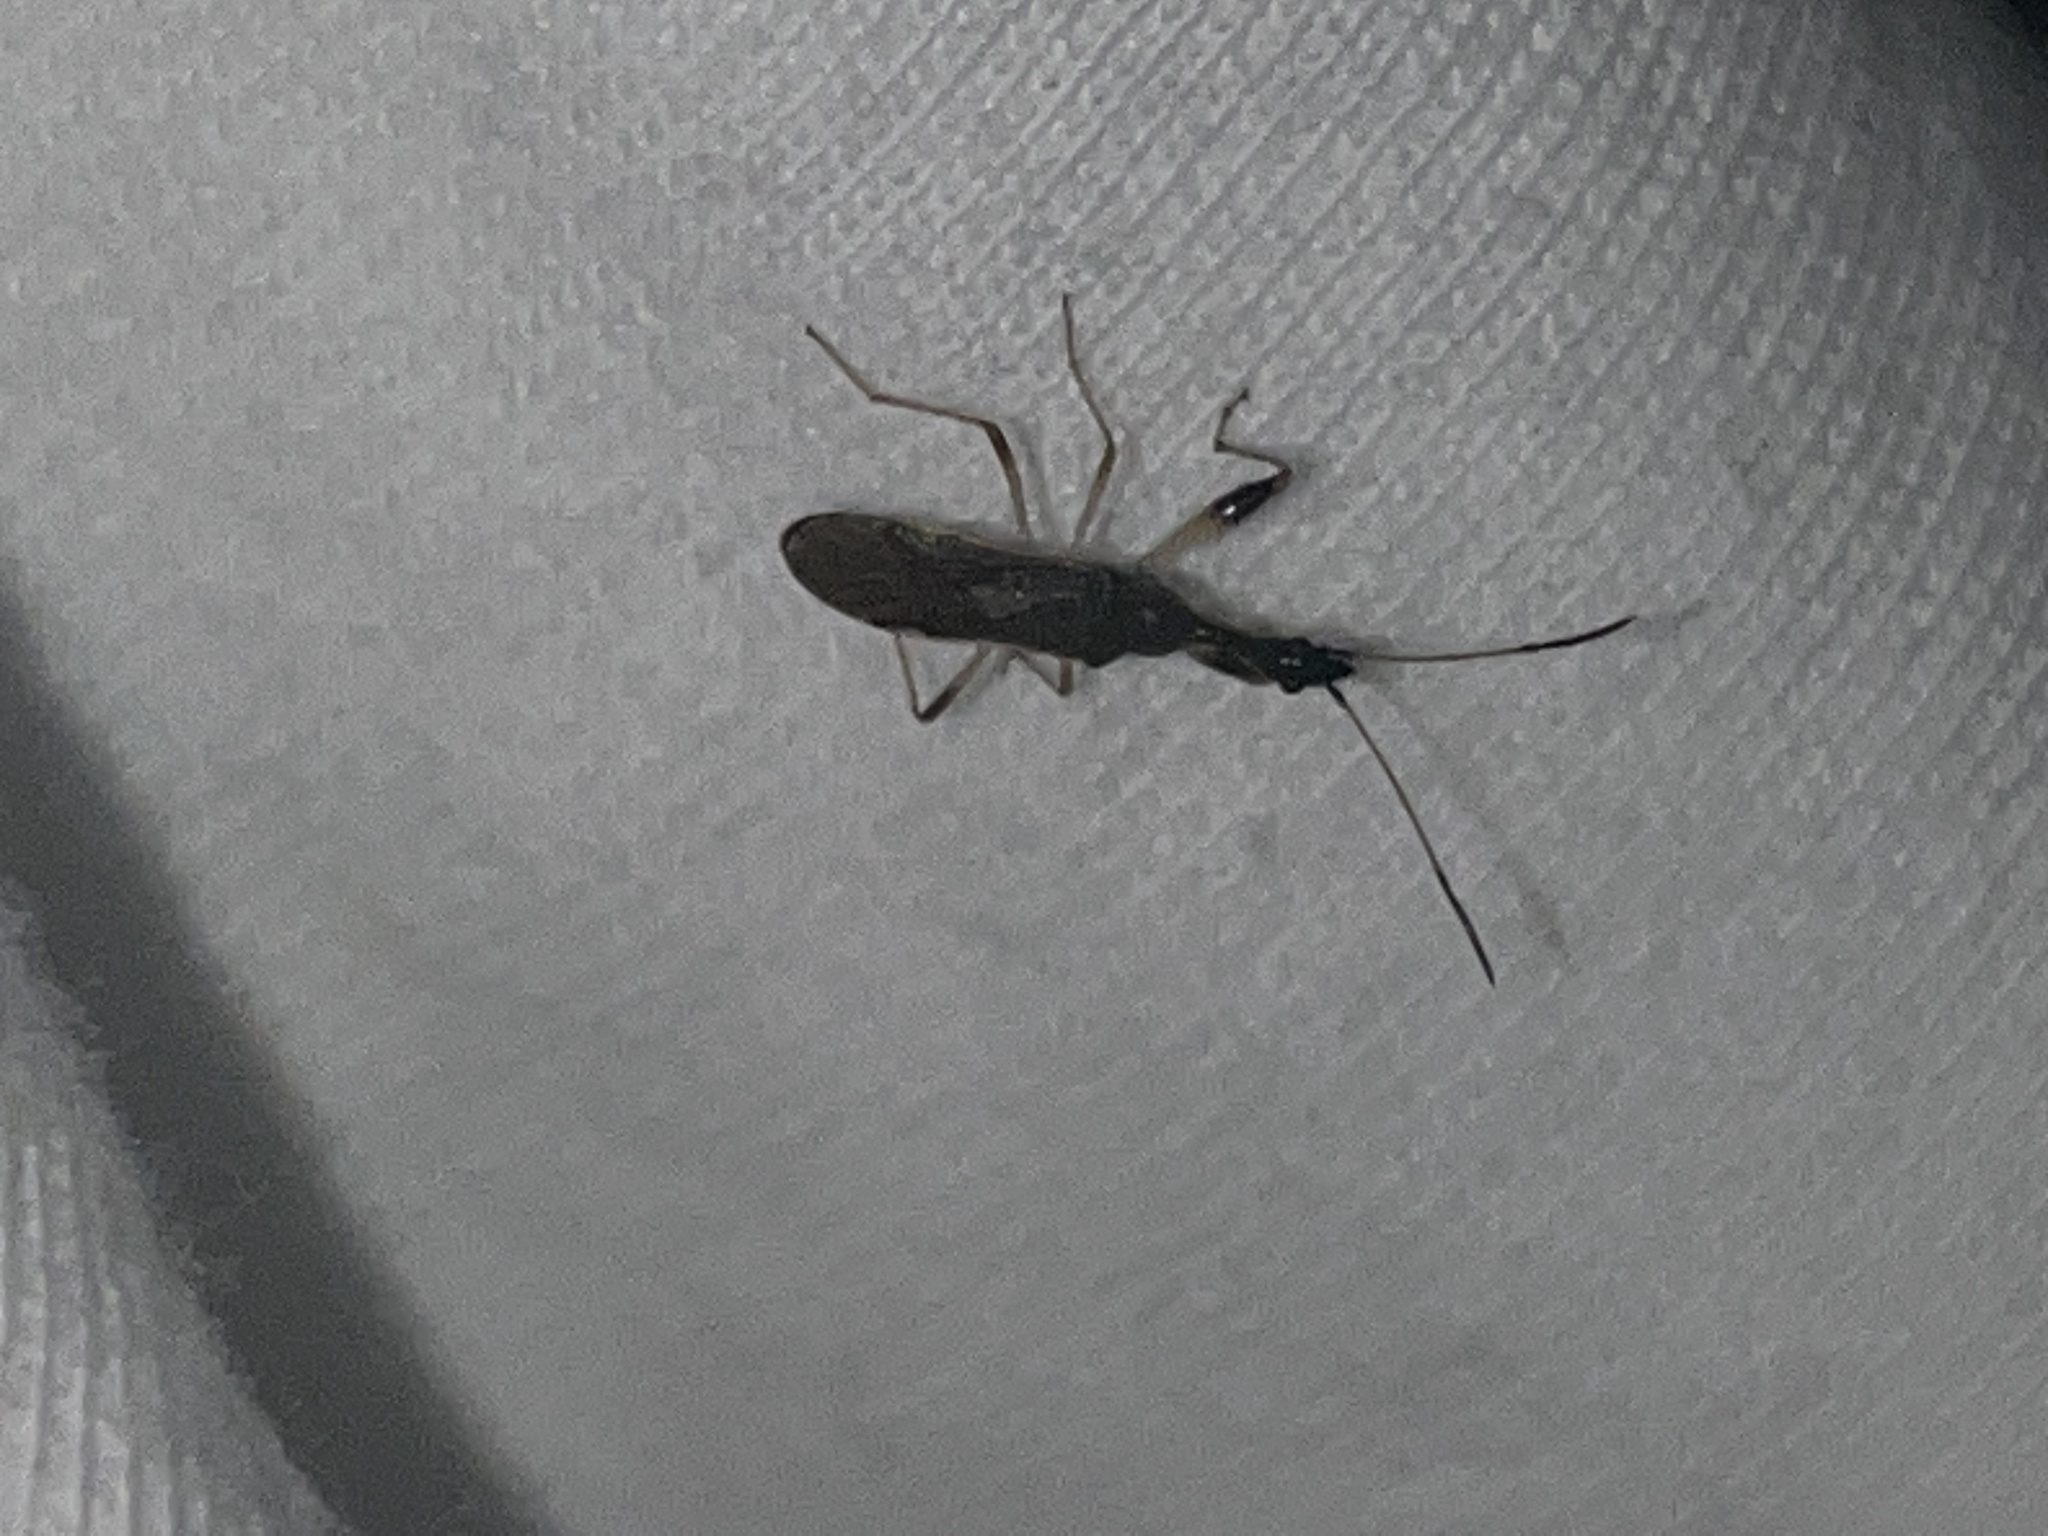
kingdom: Animalia
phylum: Arthropoda
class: Insecta
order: Hemiptera
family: Rhyparochromidae
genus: Myodocha
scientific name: Myodocha serripes
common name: Long-necked seed bug
